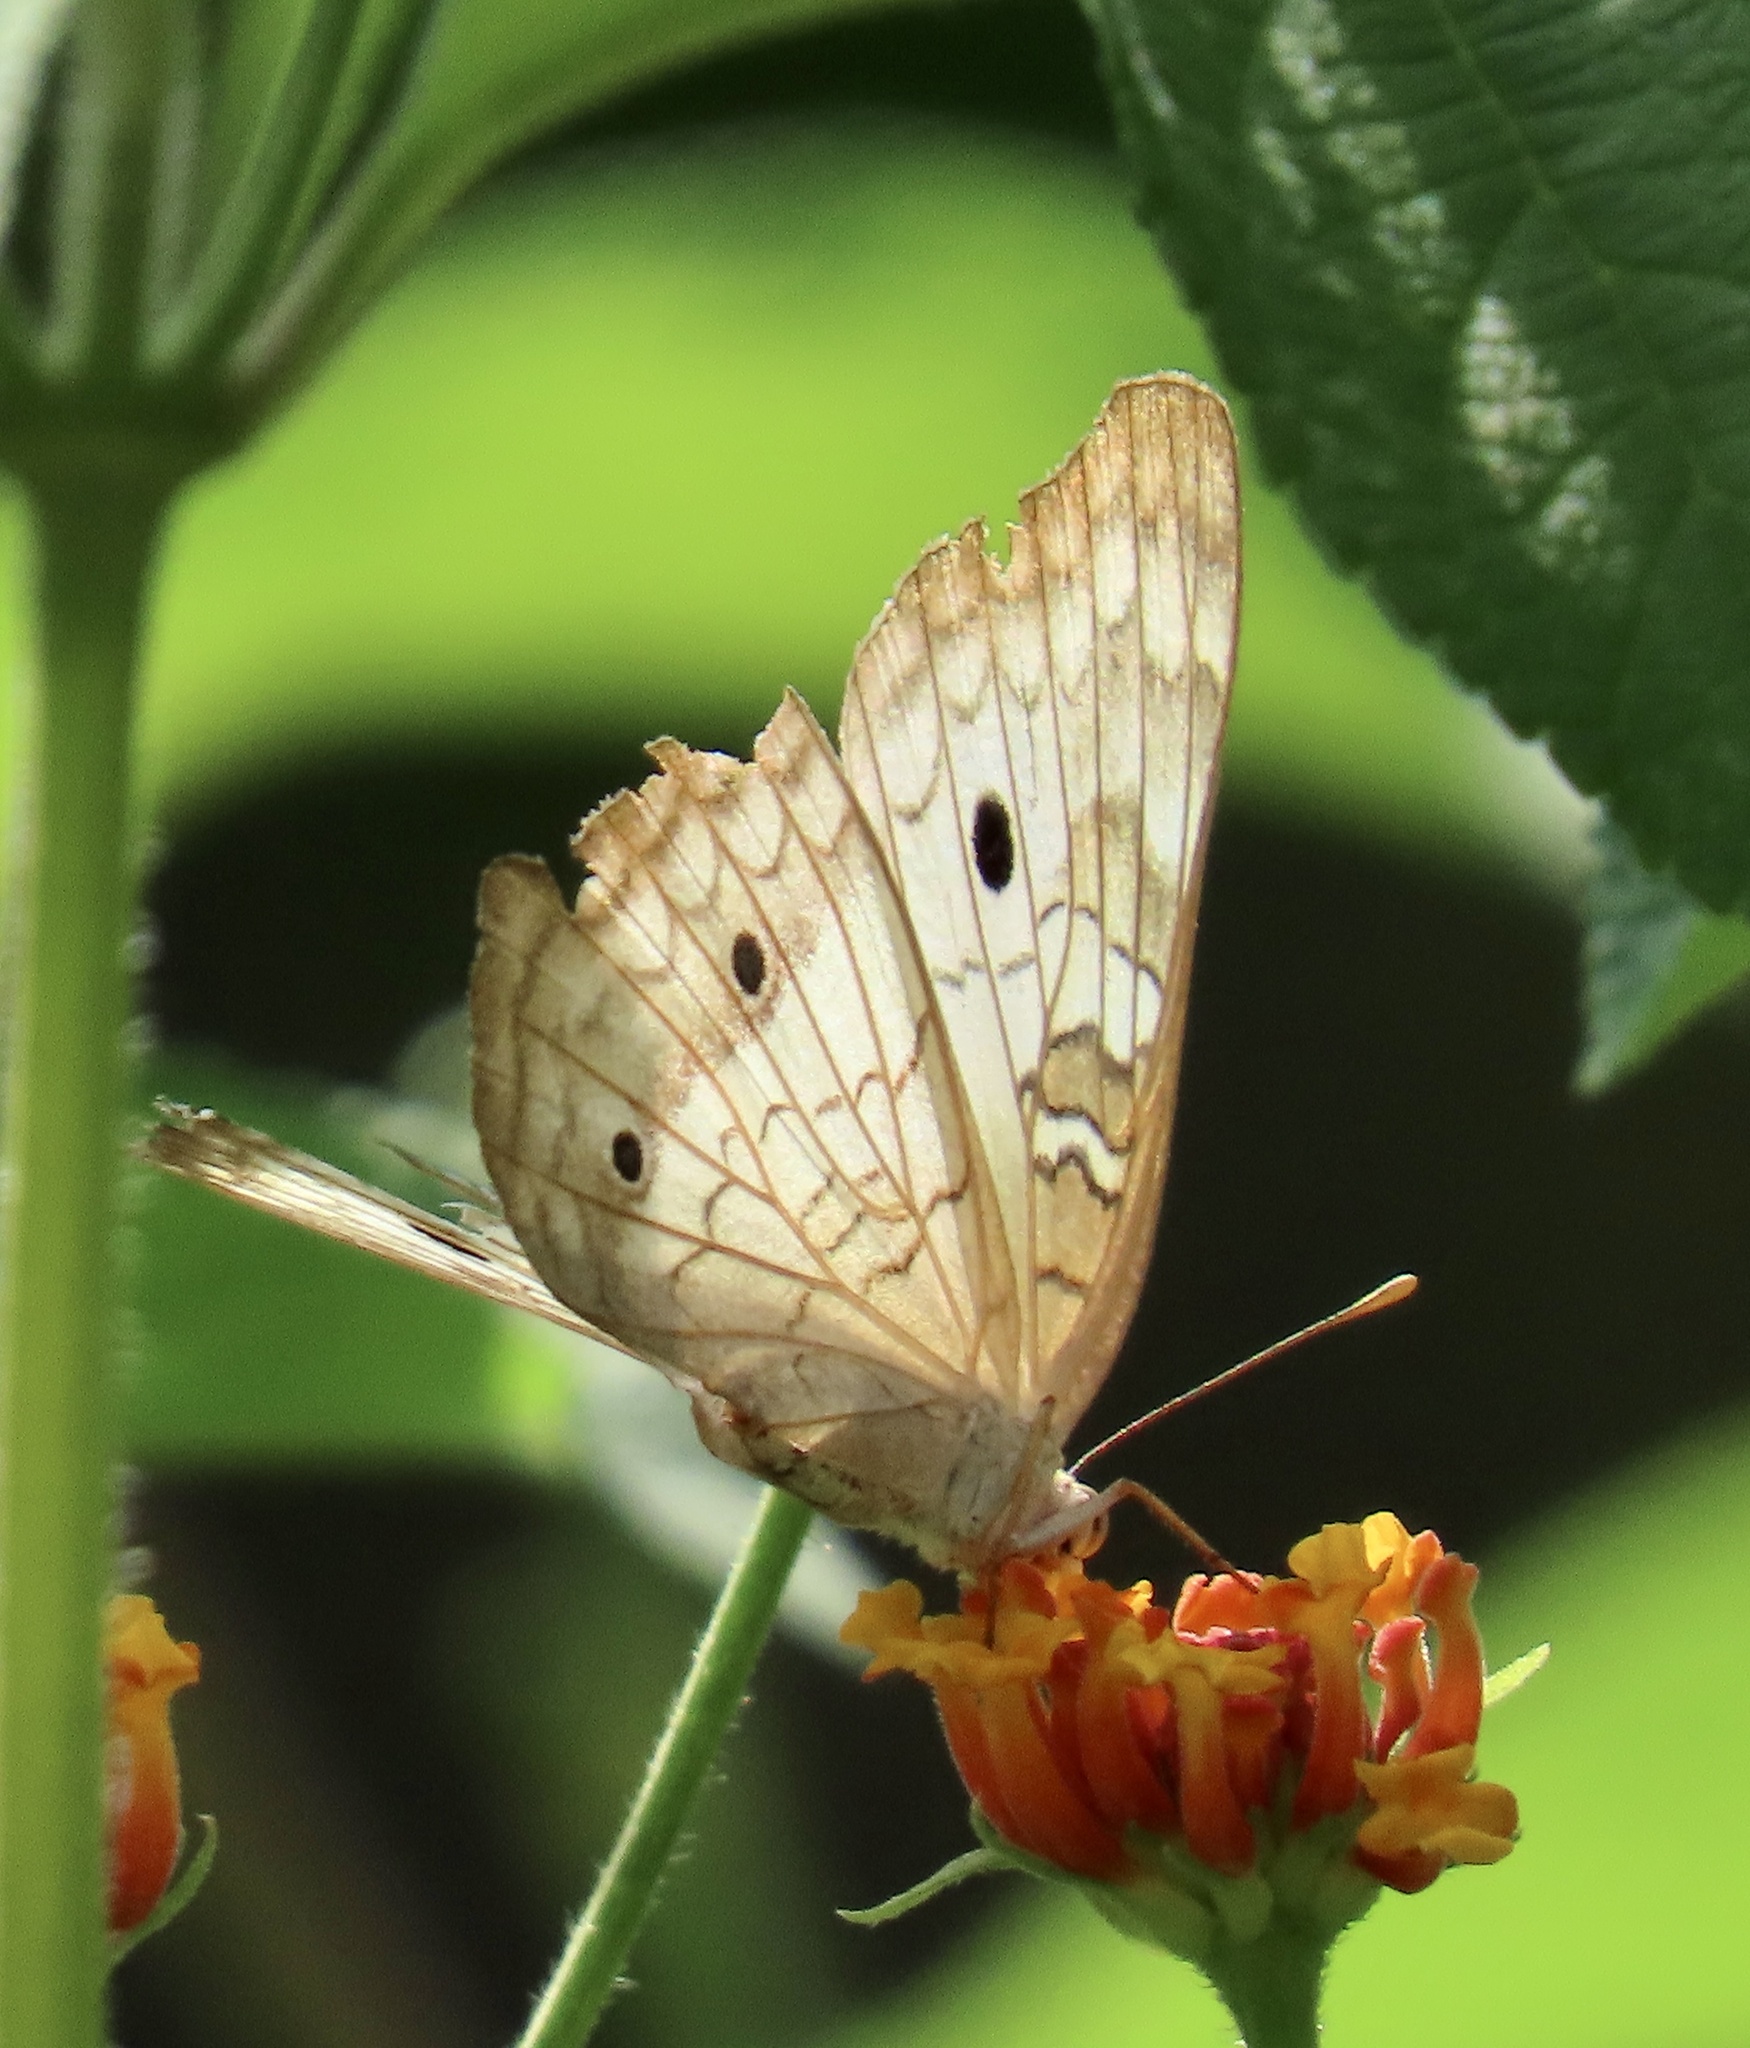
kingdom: Animalia
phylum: Arthropoda
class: Insecta
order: Lepidoptera
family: Nymphalidae
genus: Anartia
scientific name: Anartia jatrophae
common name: White peacock
